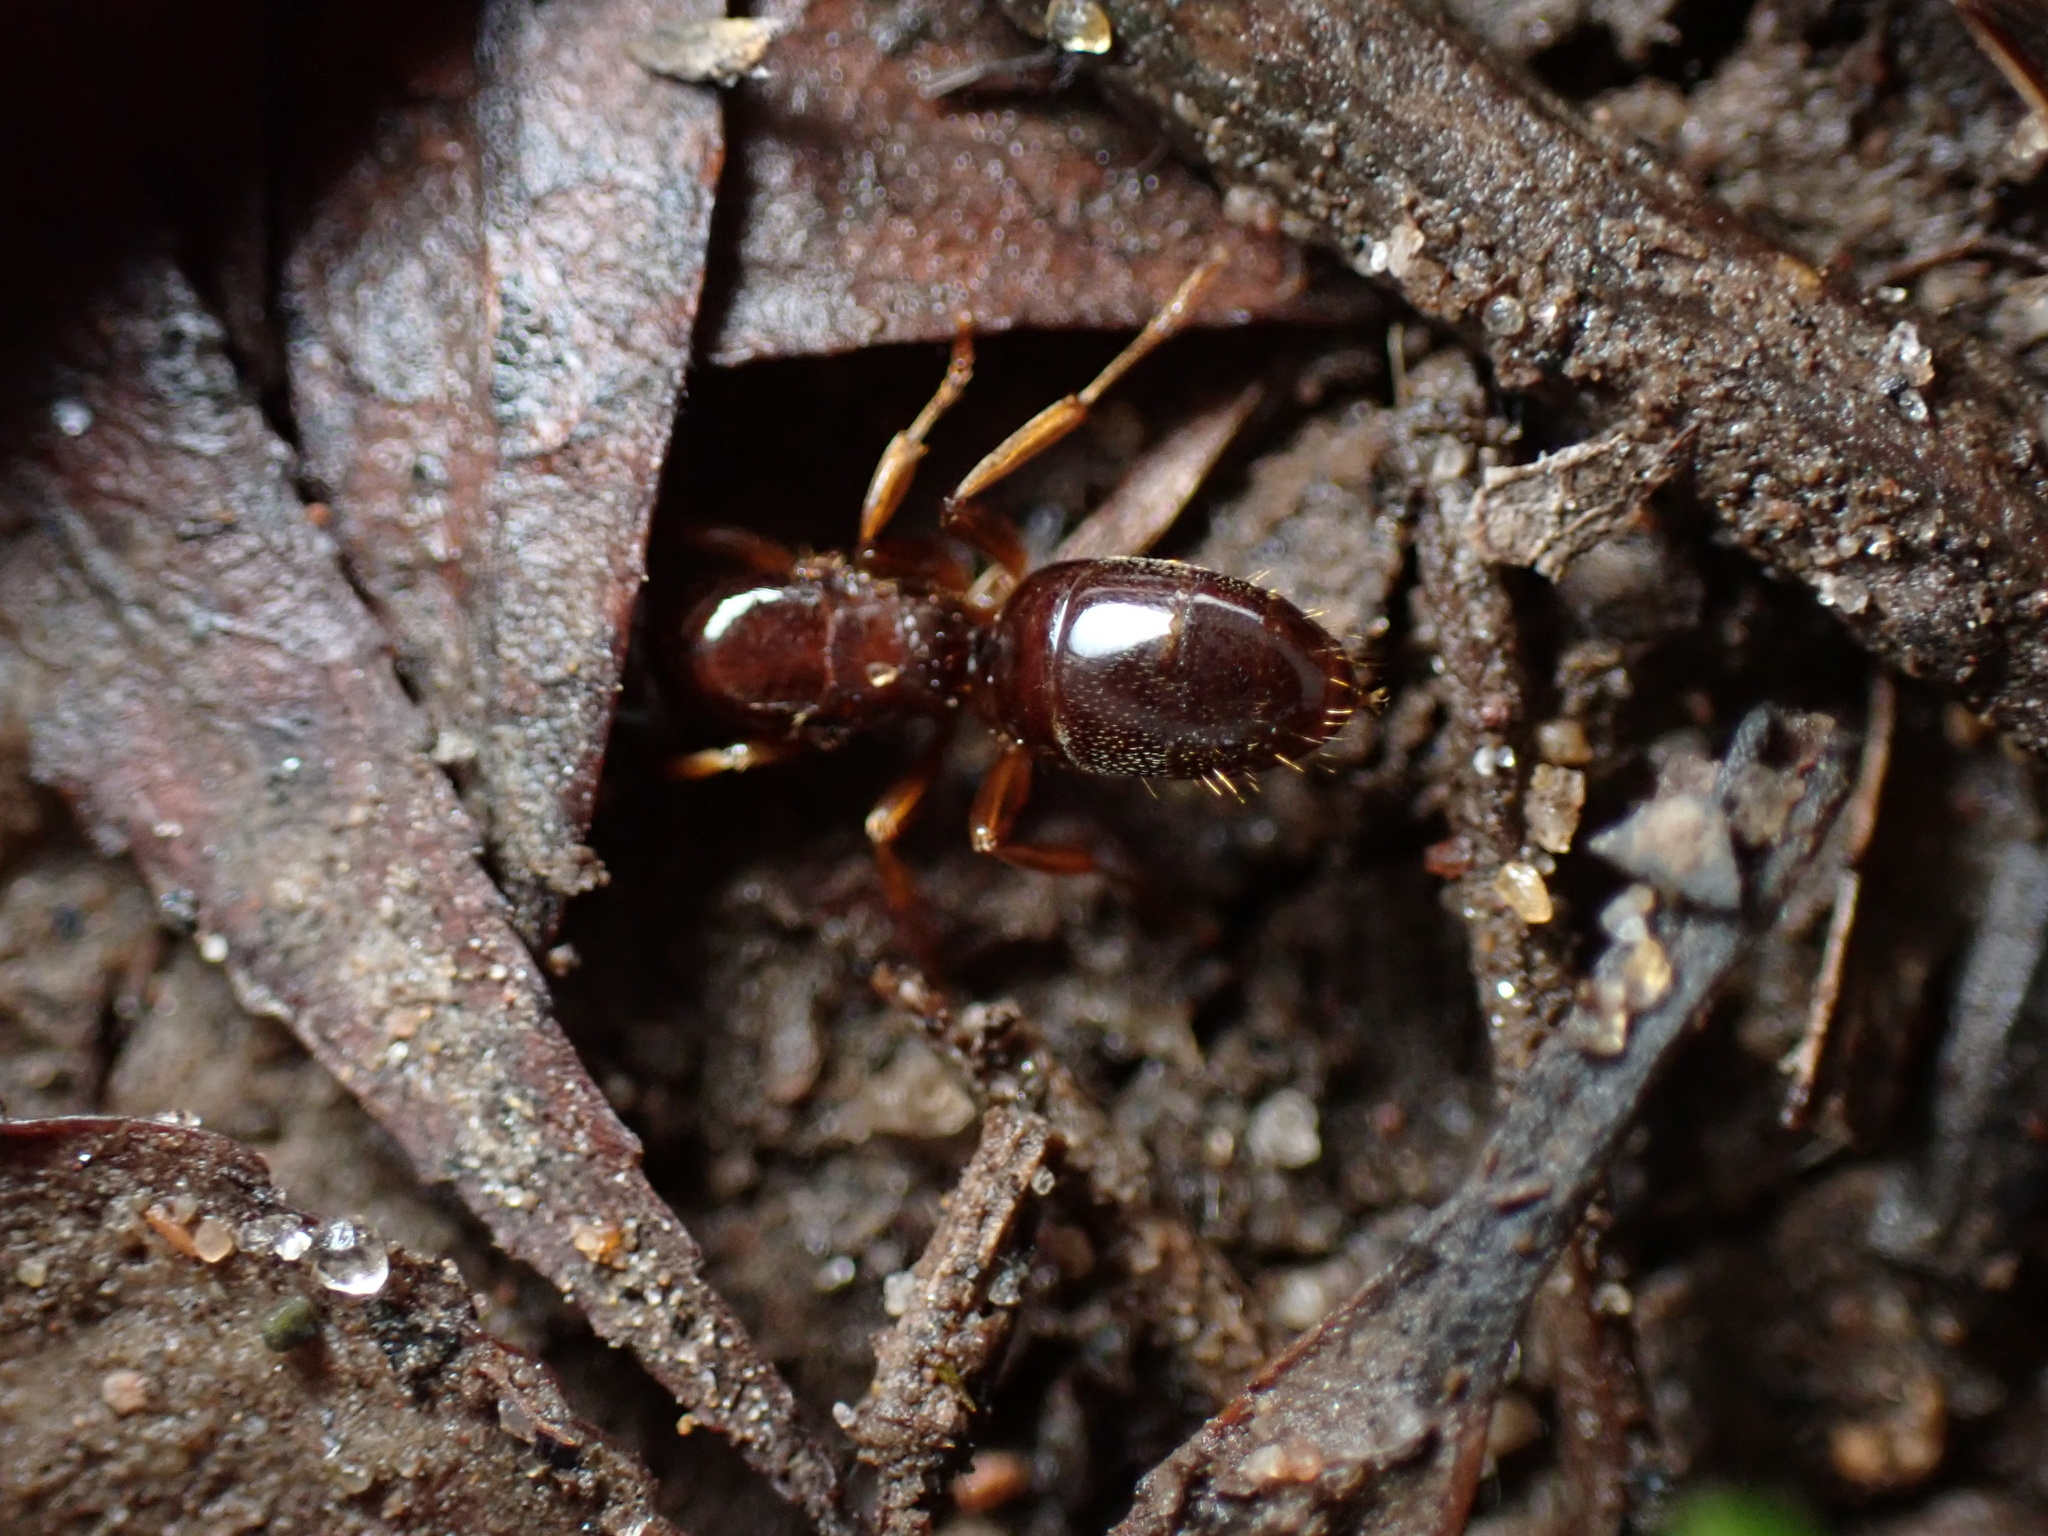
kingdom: Animalia
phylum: Arthropoda
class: Insecta
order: Hymenoptera
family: Formicidae
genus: Lasius
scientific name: Lasius claviger
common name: Common citronella ant
